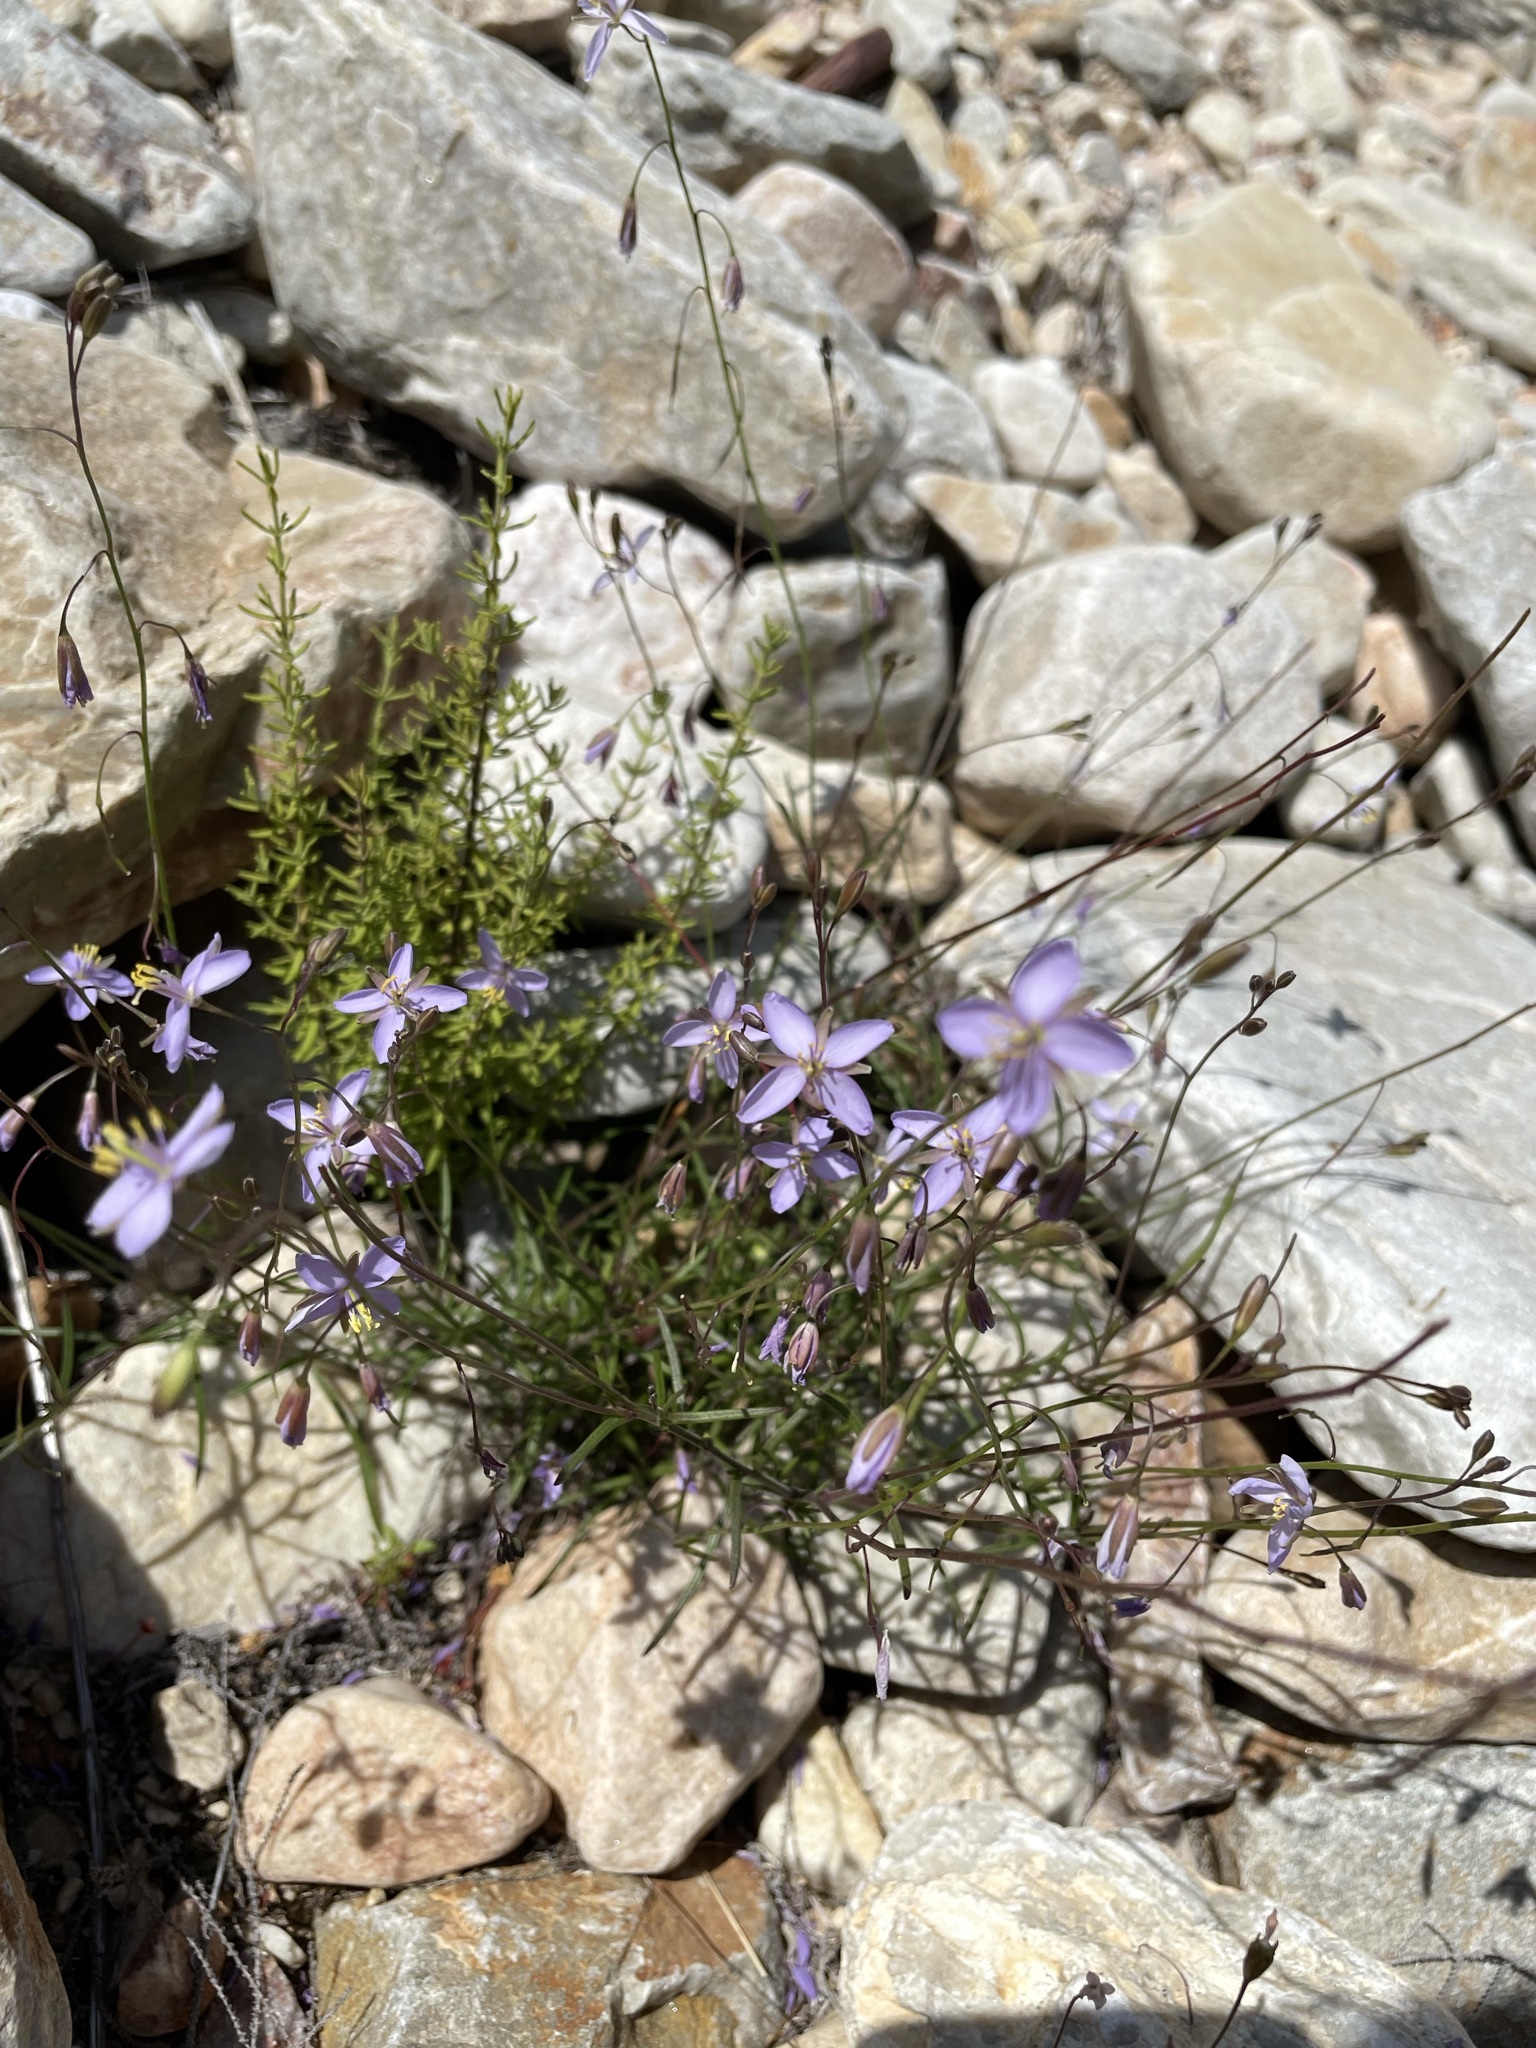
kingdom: Plantae
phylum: Tracheophyta
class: Magnoliopsida
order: Brassicales
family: Brassicaceae
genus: Heliophila
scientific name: Heliophila subulata
